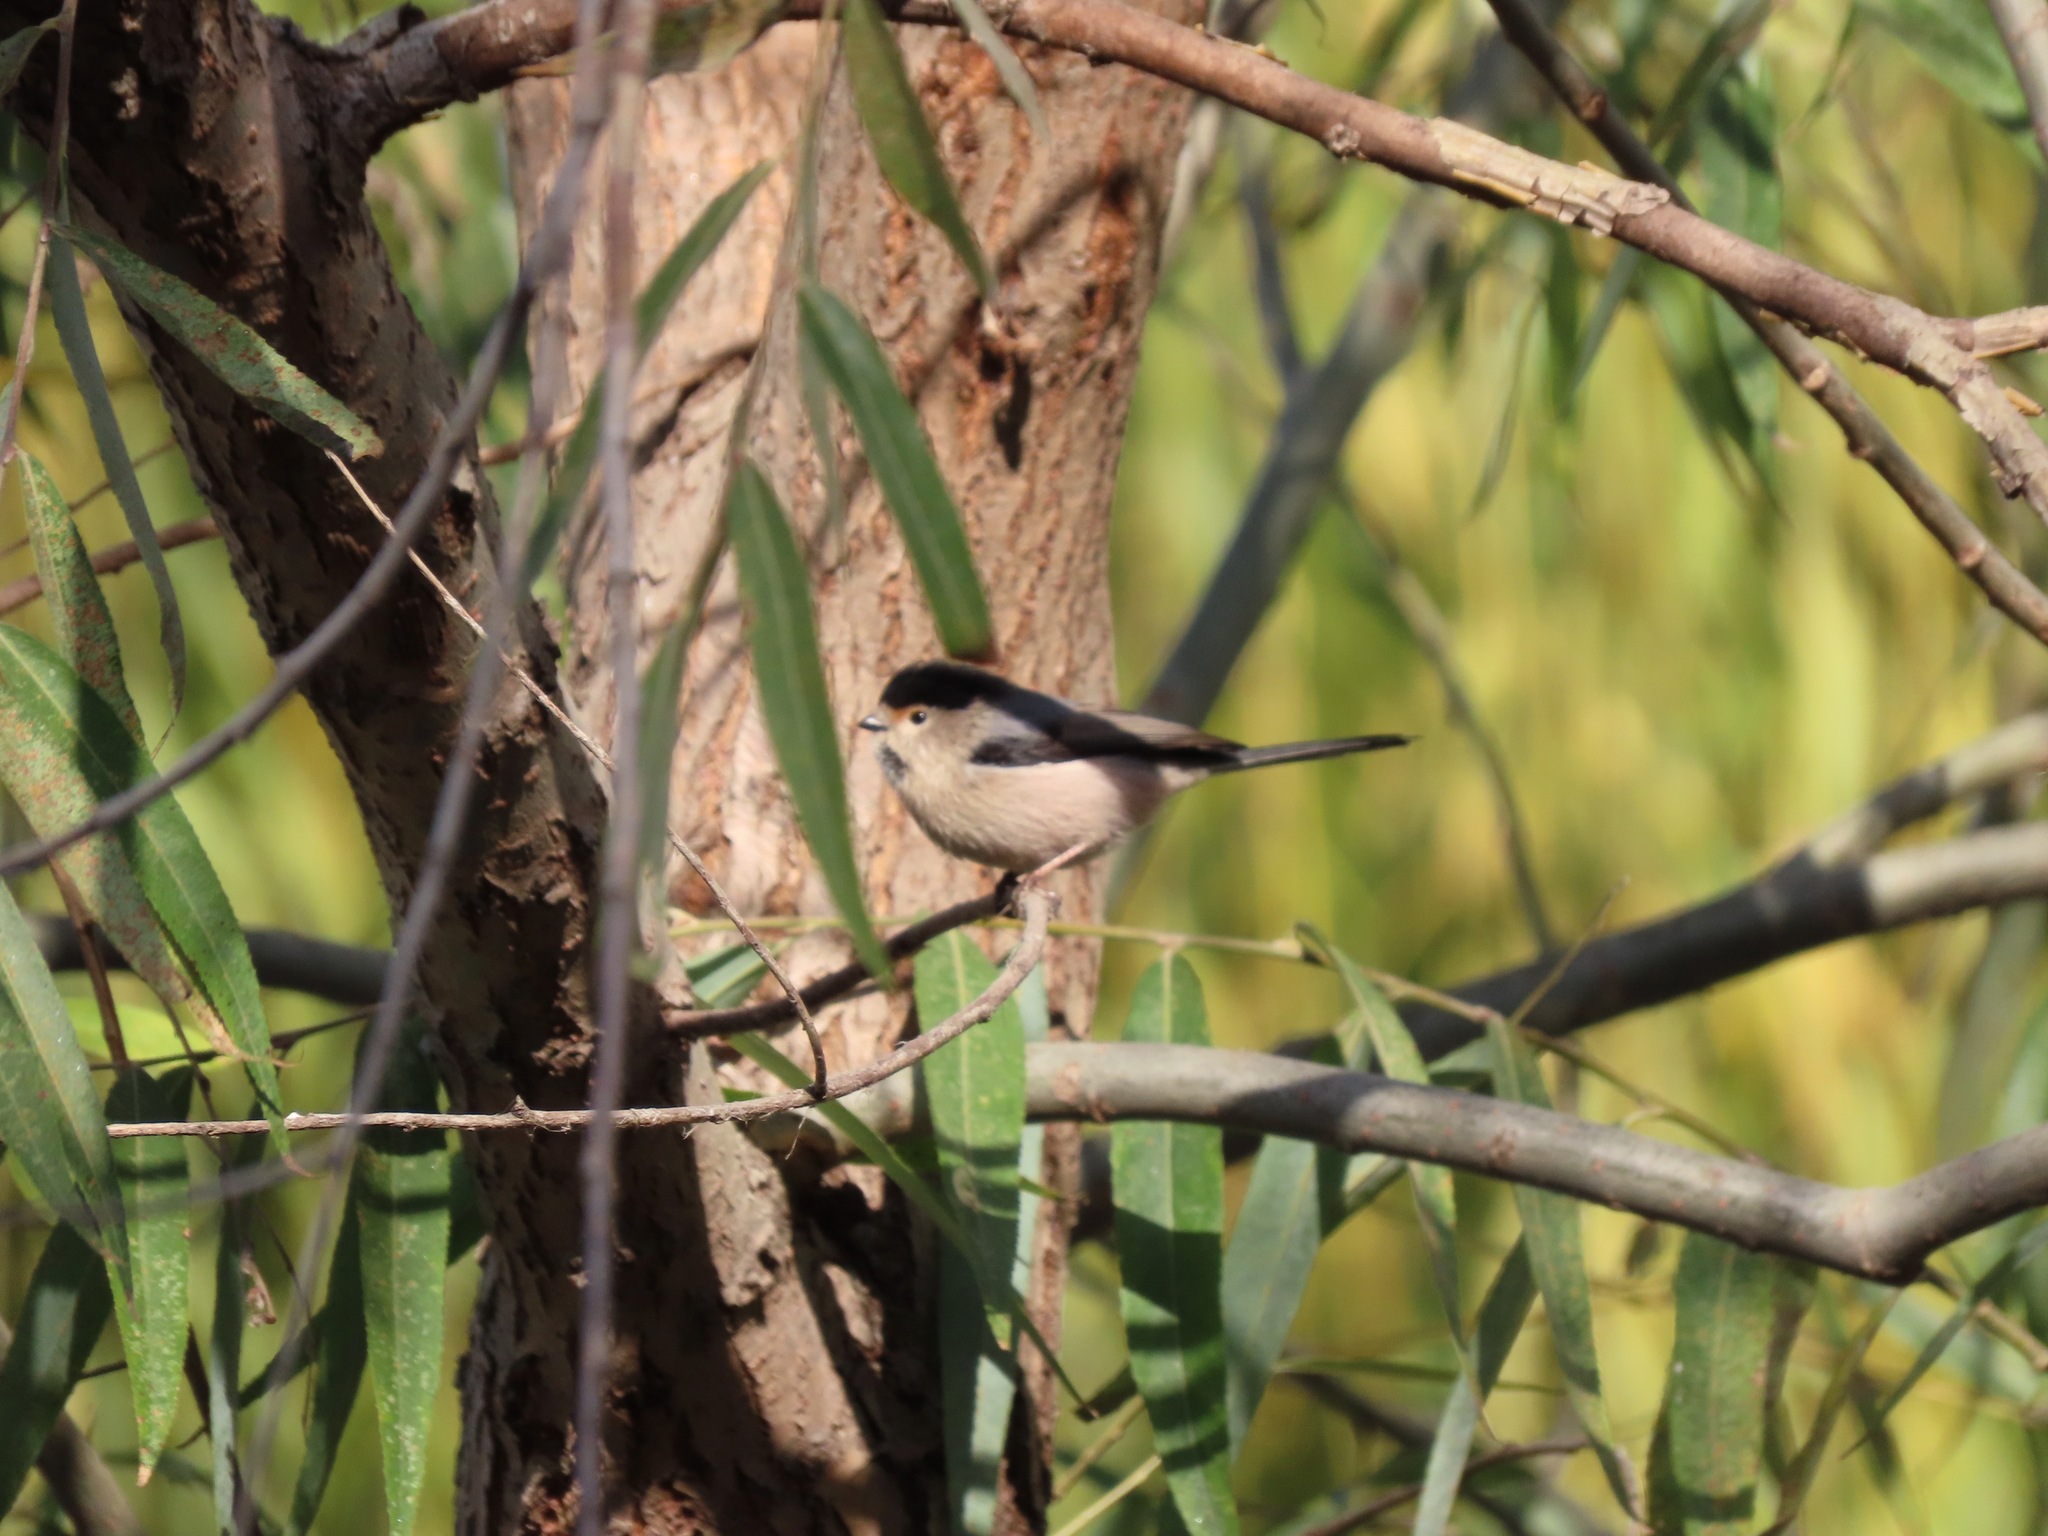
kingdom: Animalia
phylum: Chordata
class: Aves
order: Passeriformes
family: Aegithalidae
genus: Aegithalos
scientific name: Aegithalos glaucogularis
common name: Silver-throated bushtit
